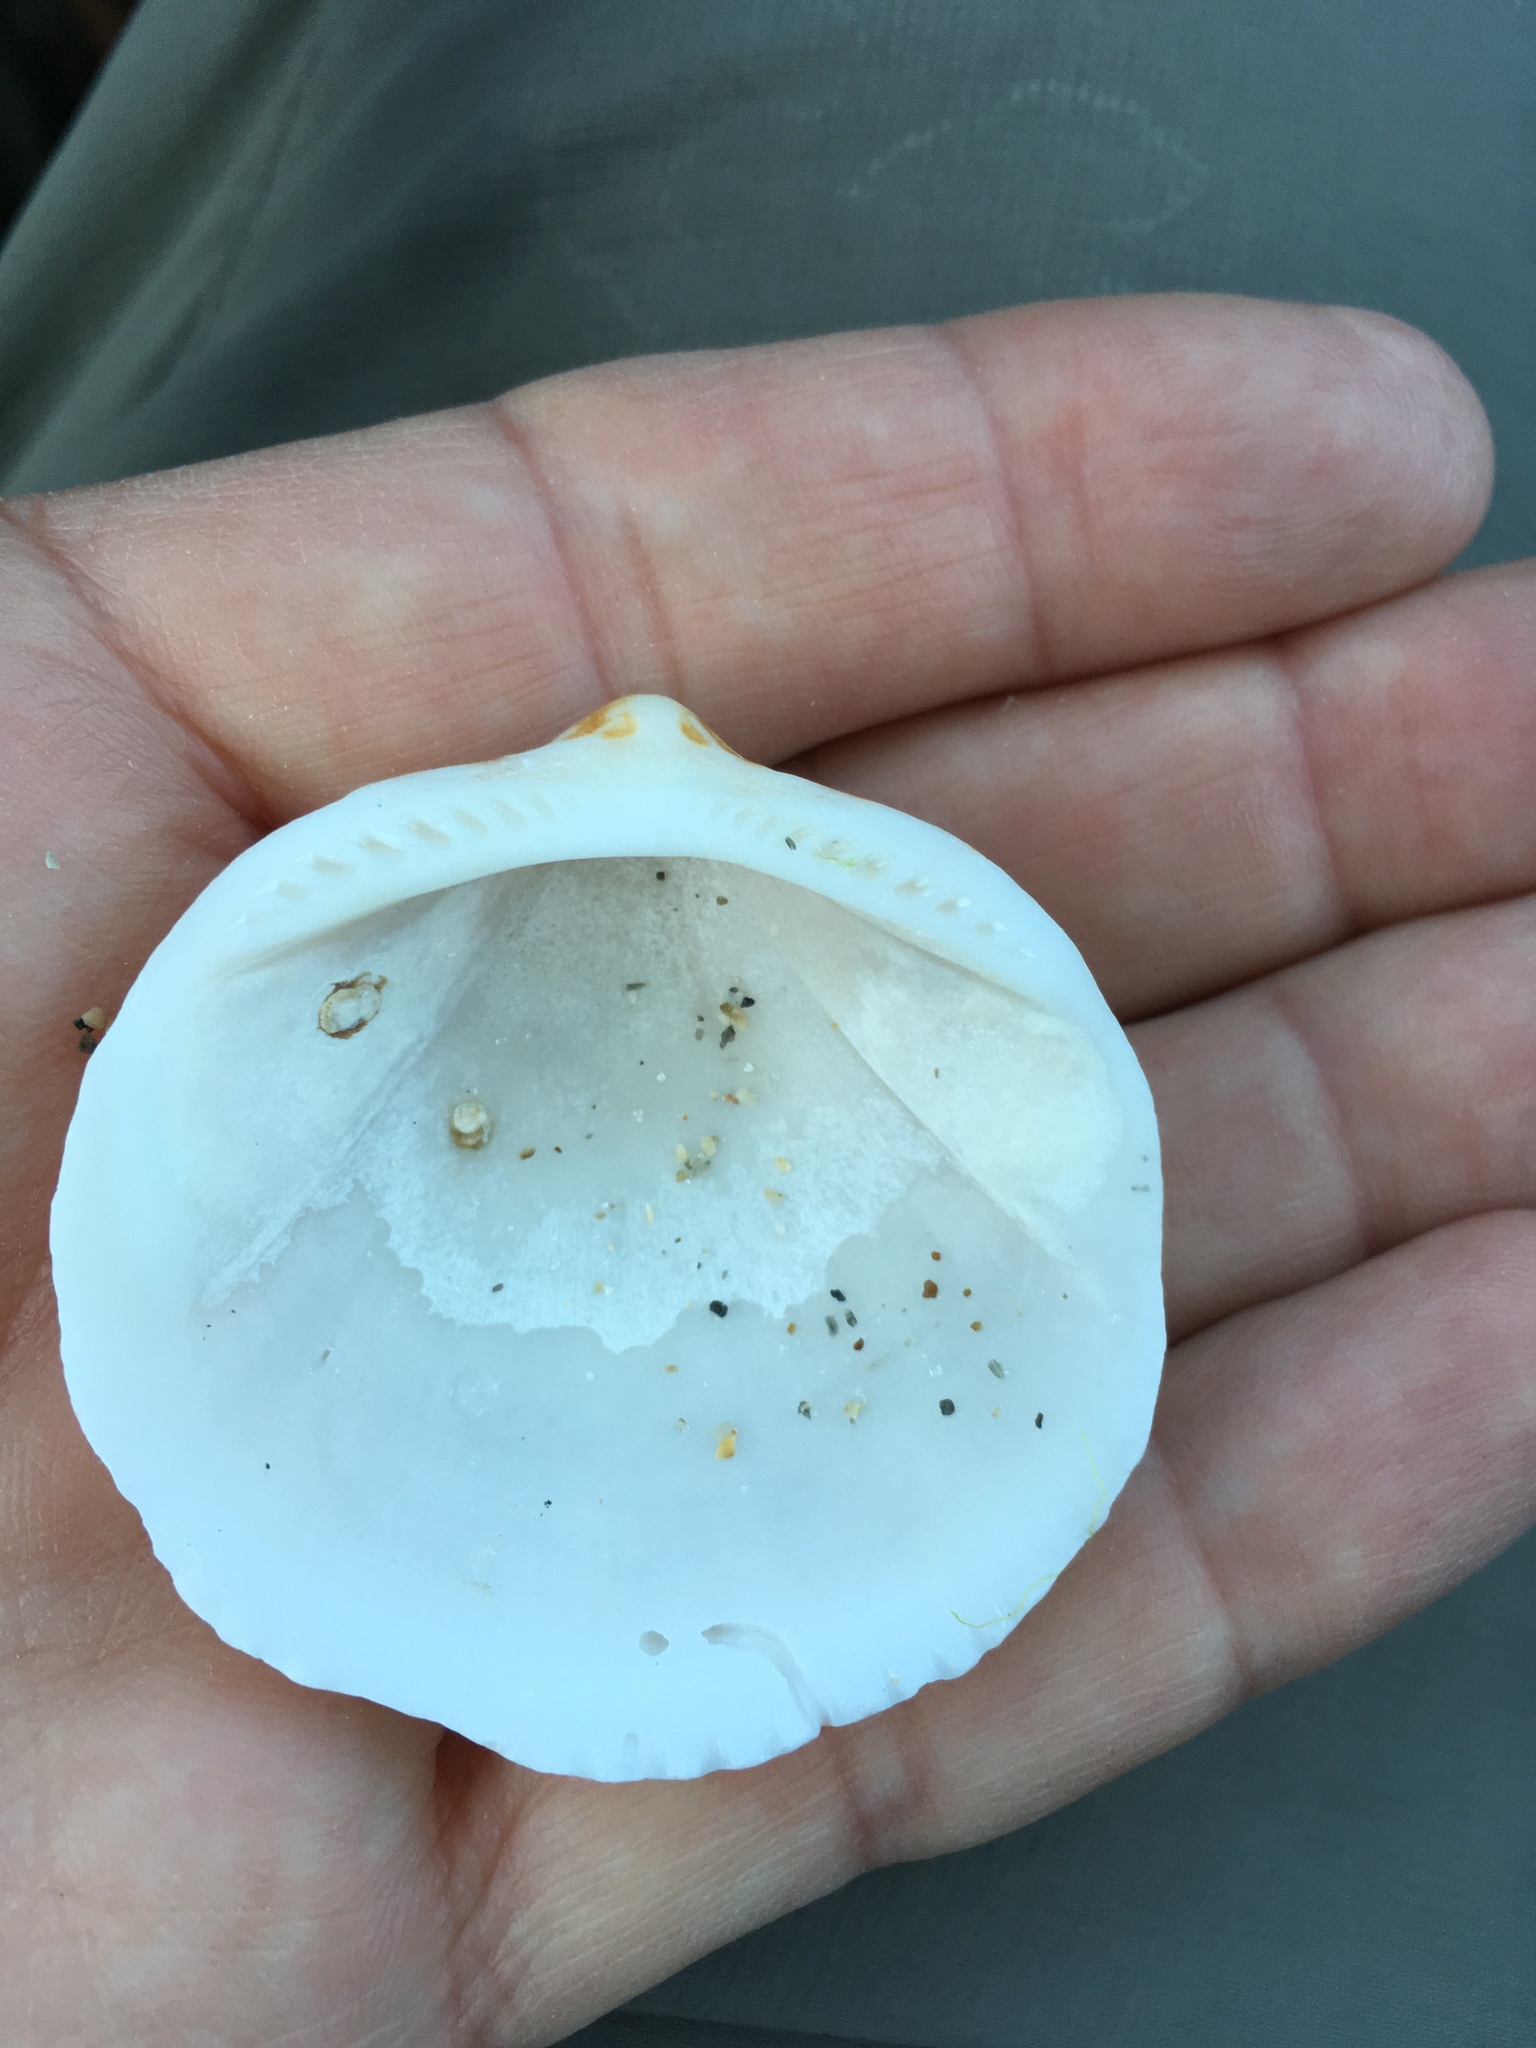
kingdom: Animalia
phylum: Mollusca
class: Bivalvia
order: Arcida
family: Glycymerididae
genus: Glycymeris
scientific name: Glycymeris americana
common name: American bittersweet
